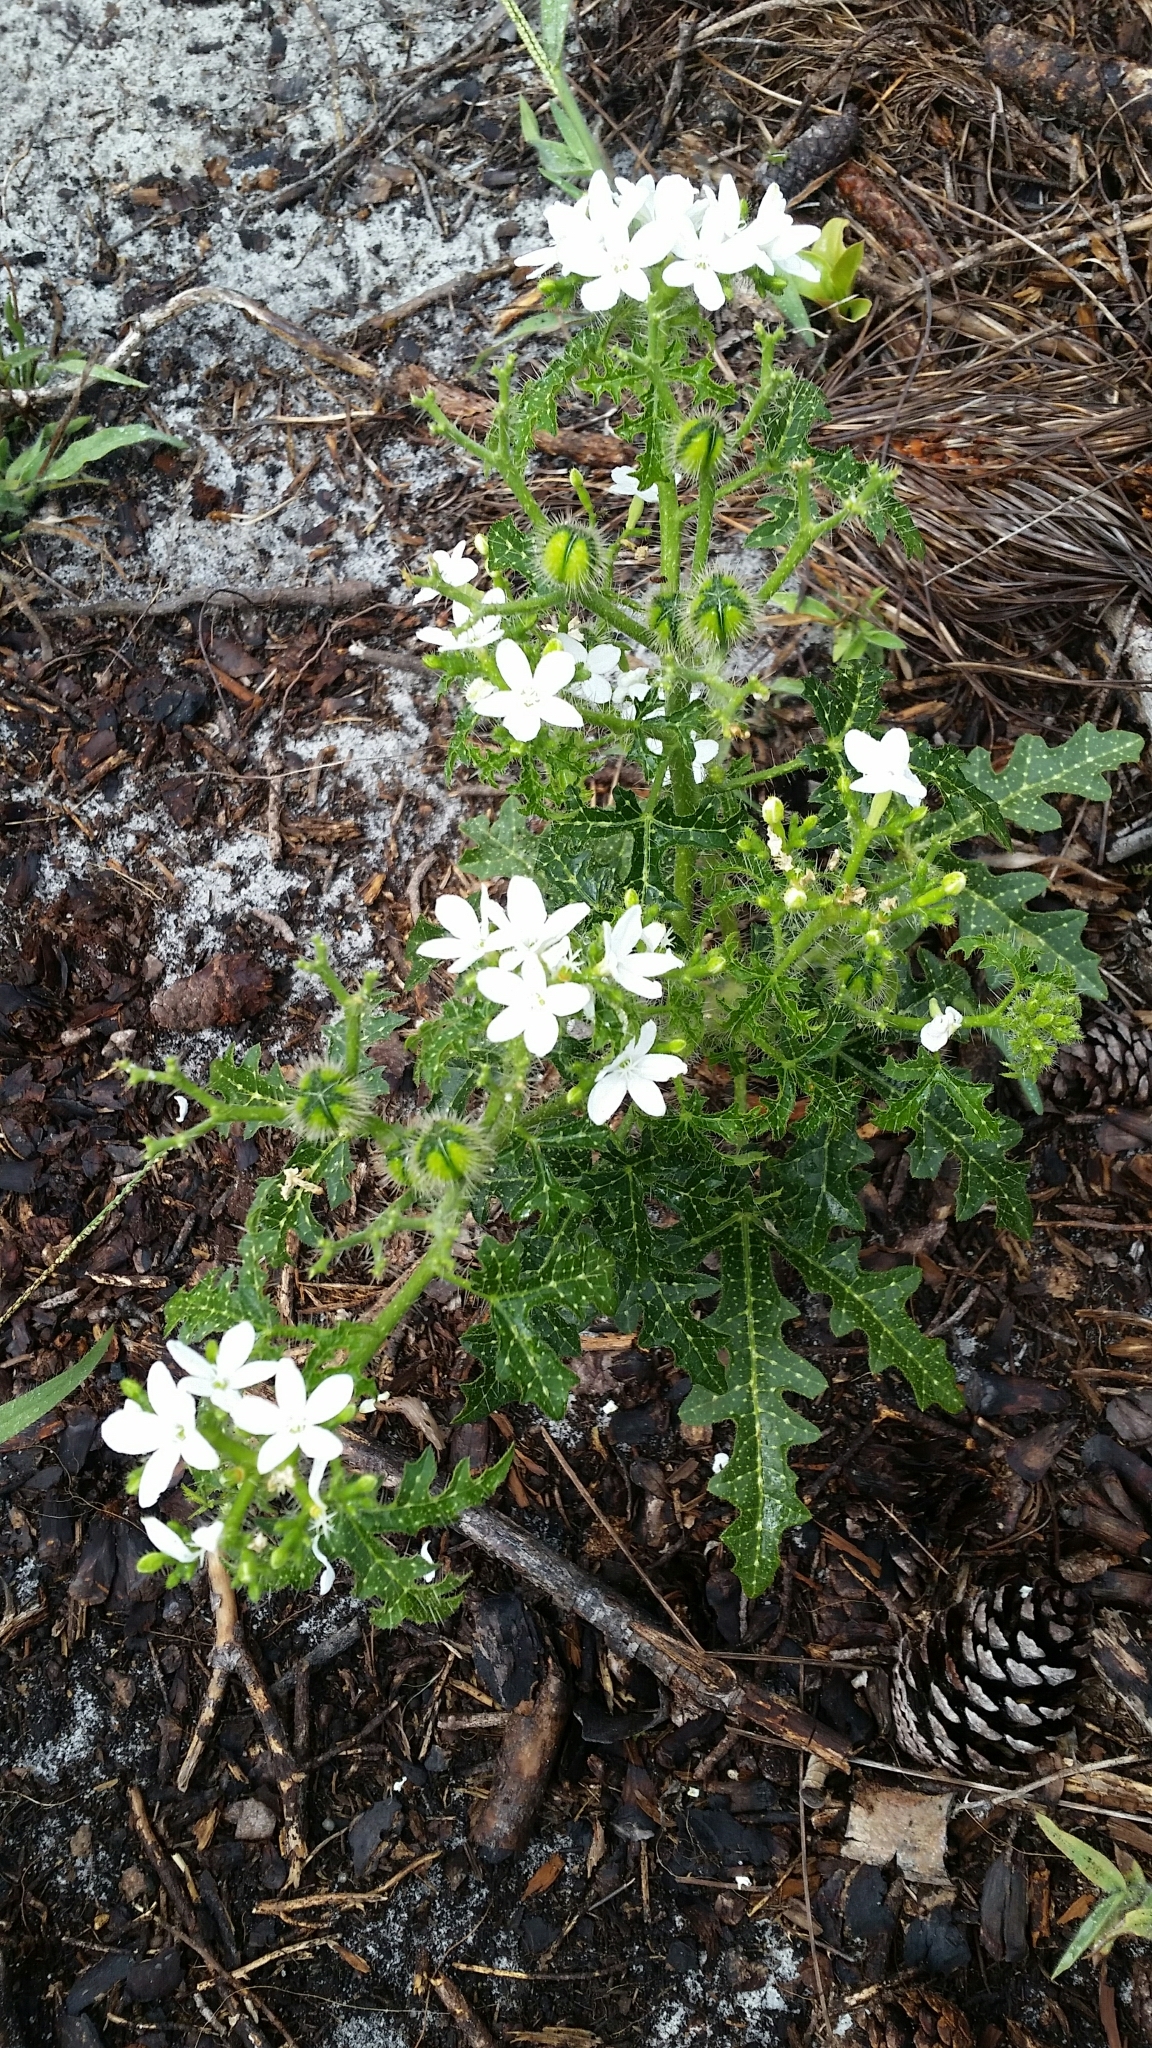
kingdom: Plantae
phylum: Tracheophyta
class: Magnoliopsida
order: Malpighiales
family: Euphorbiaceae
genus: Cnidoscolus
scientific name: Cnidoscolus stimulosus
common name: Bull-nettle
